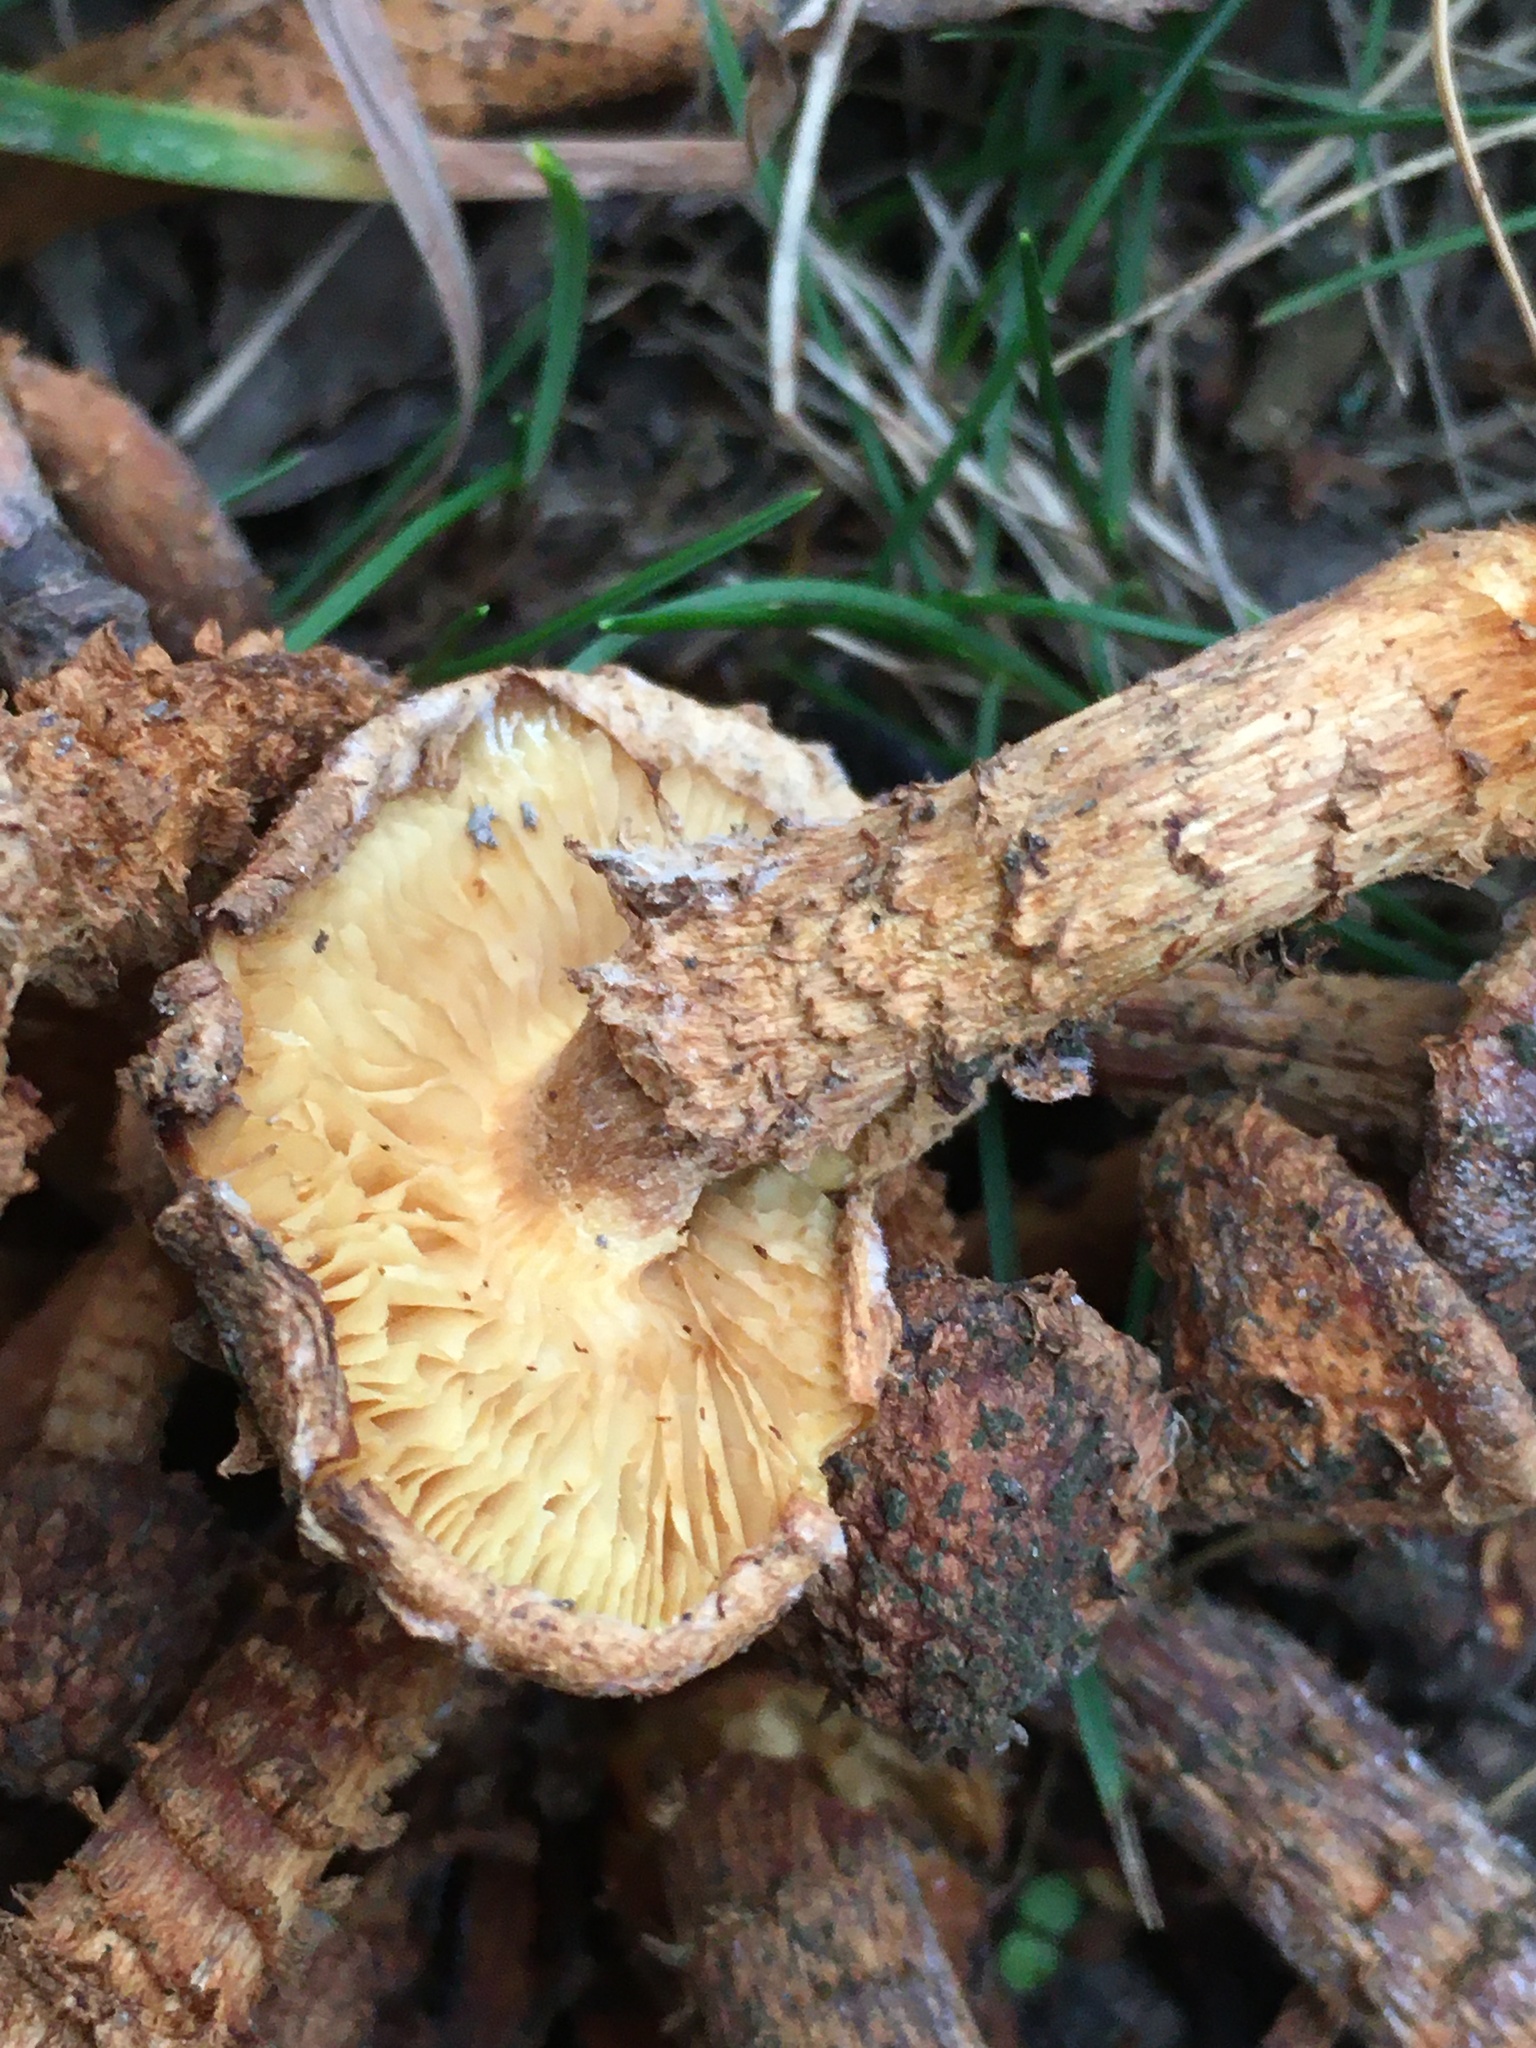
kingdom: Fungi
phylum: Basidiomycota
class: Agaricomycetes
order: Agaricales
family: Strophariaceae
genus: Pholiota
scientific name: Pholiota squarrosa
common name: Shaggy pholiota
